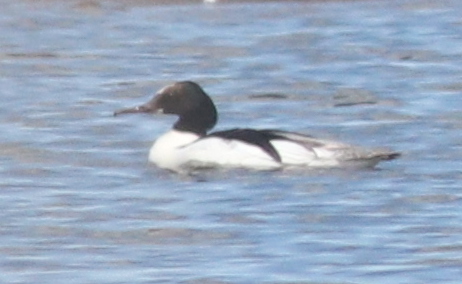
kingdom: Animalia
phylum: Chordata
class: Aves
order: Anseriformes
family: Anatidae
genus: Mergus
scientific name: Mergus merganser
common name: Common merganser
